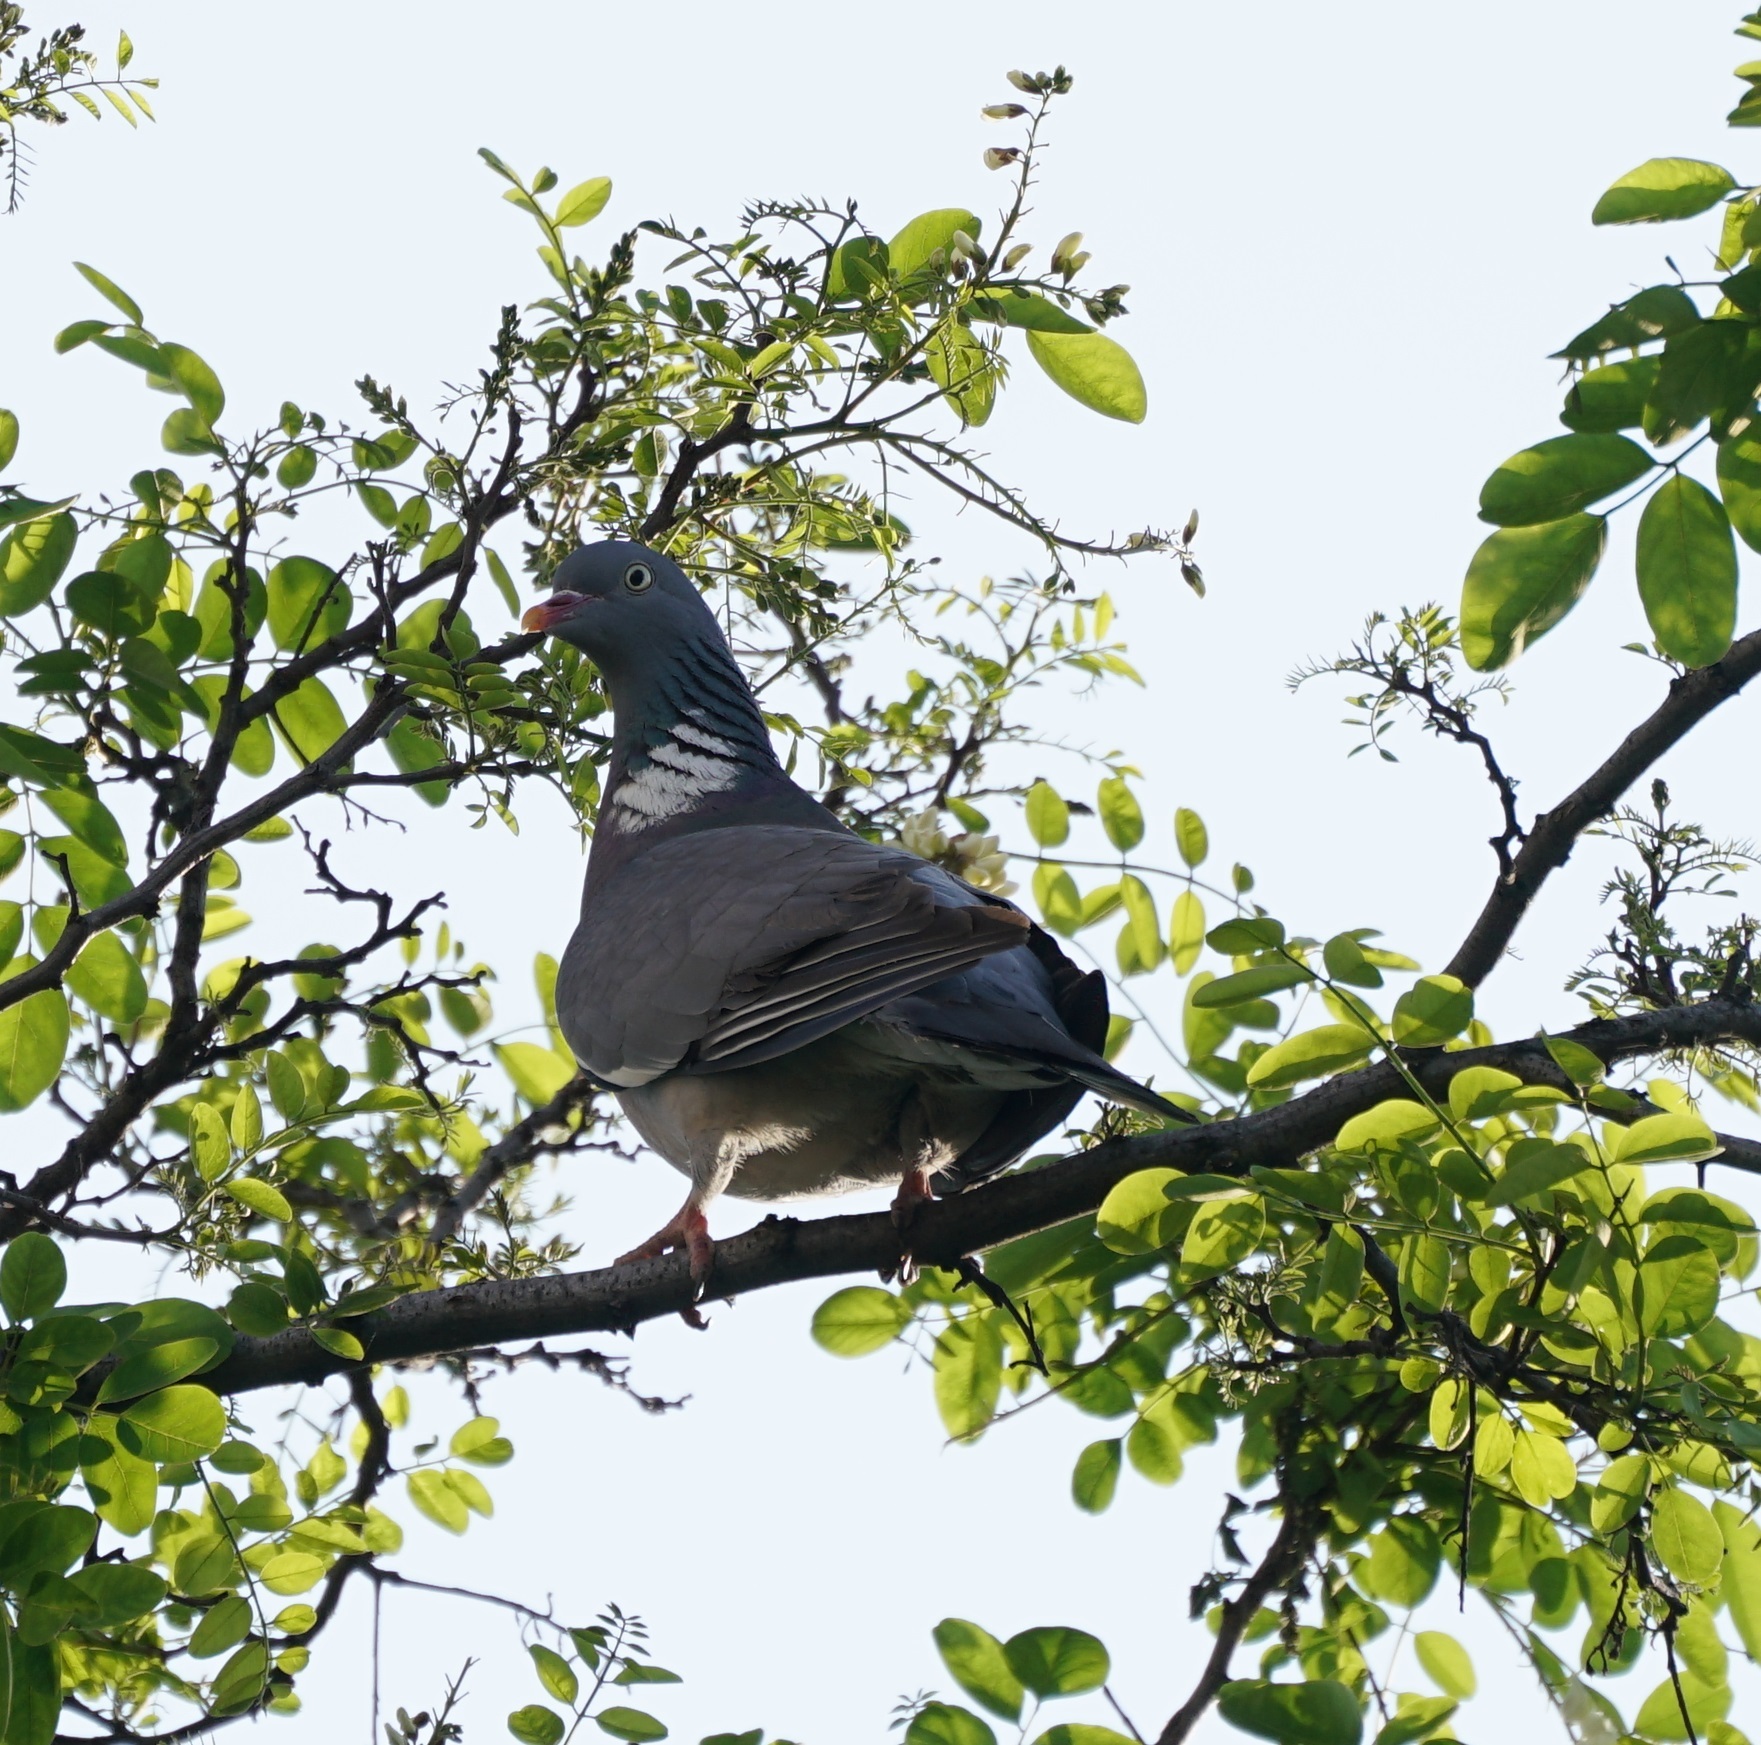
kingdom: Animalia
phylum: Chordata
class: Aves
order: Columbiformes
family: Columbidae
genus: Columba
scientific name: Columba palumbus
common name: Common wood pigeon
